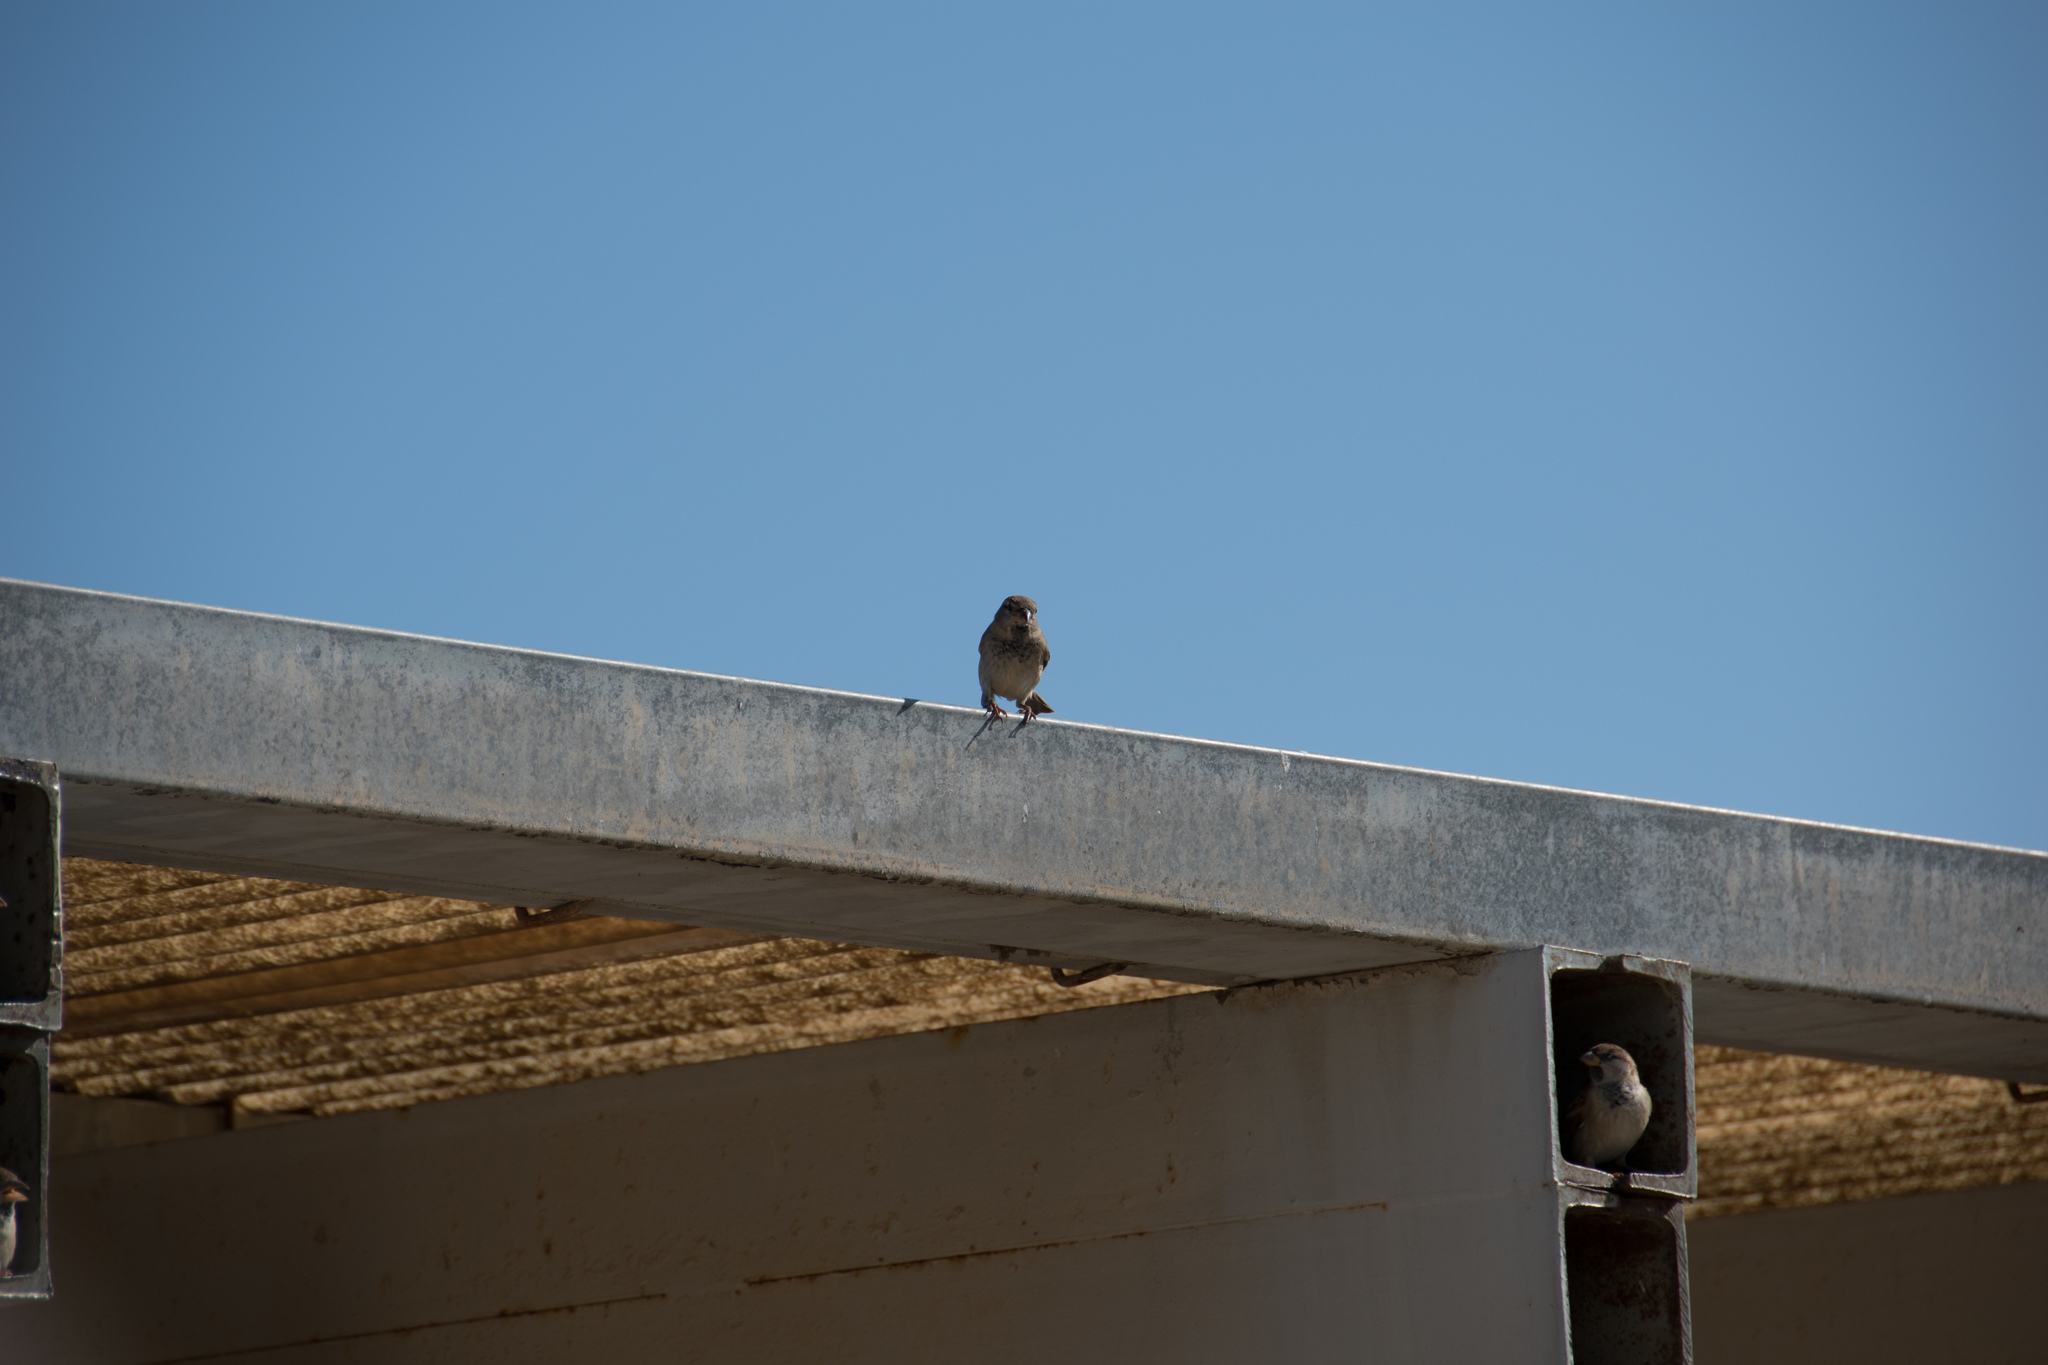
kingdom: Animalia
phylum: Chordata
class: Aves
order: Passeriformes
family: Passeridae
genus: Passer
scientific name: Passer
